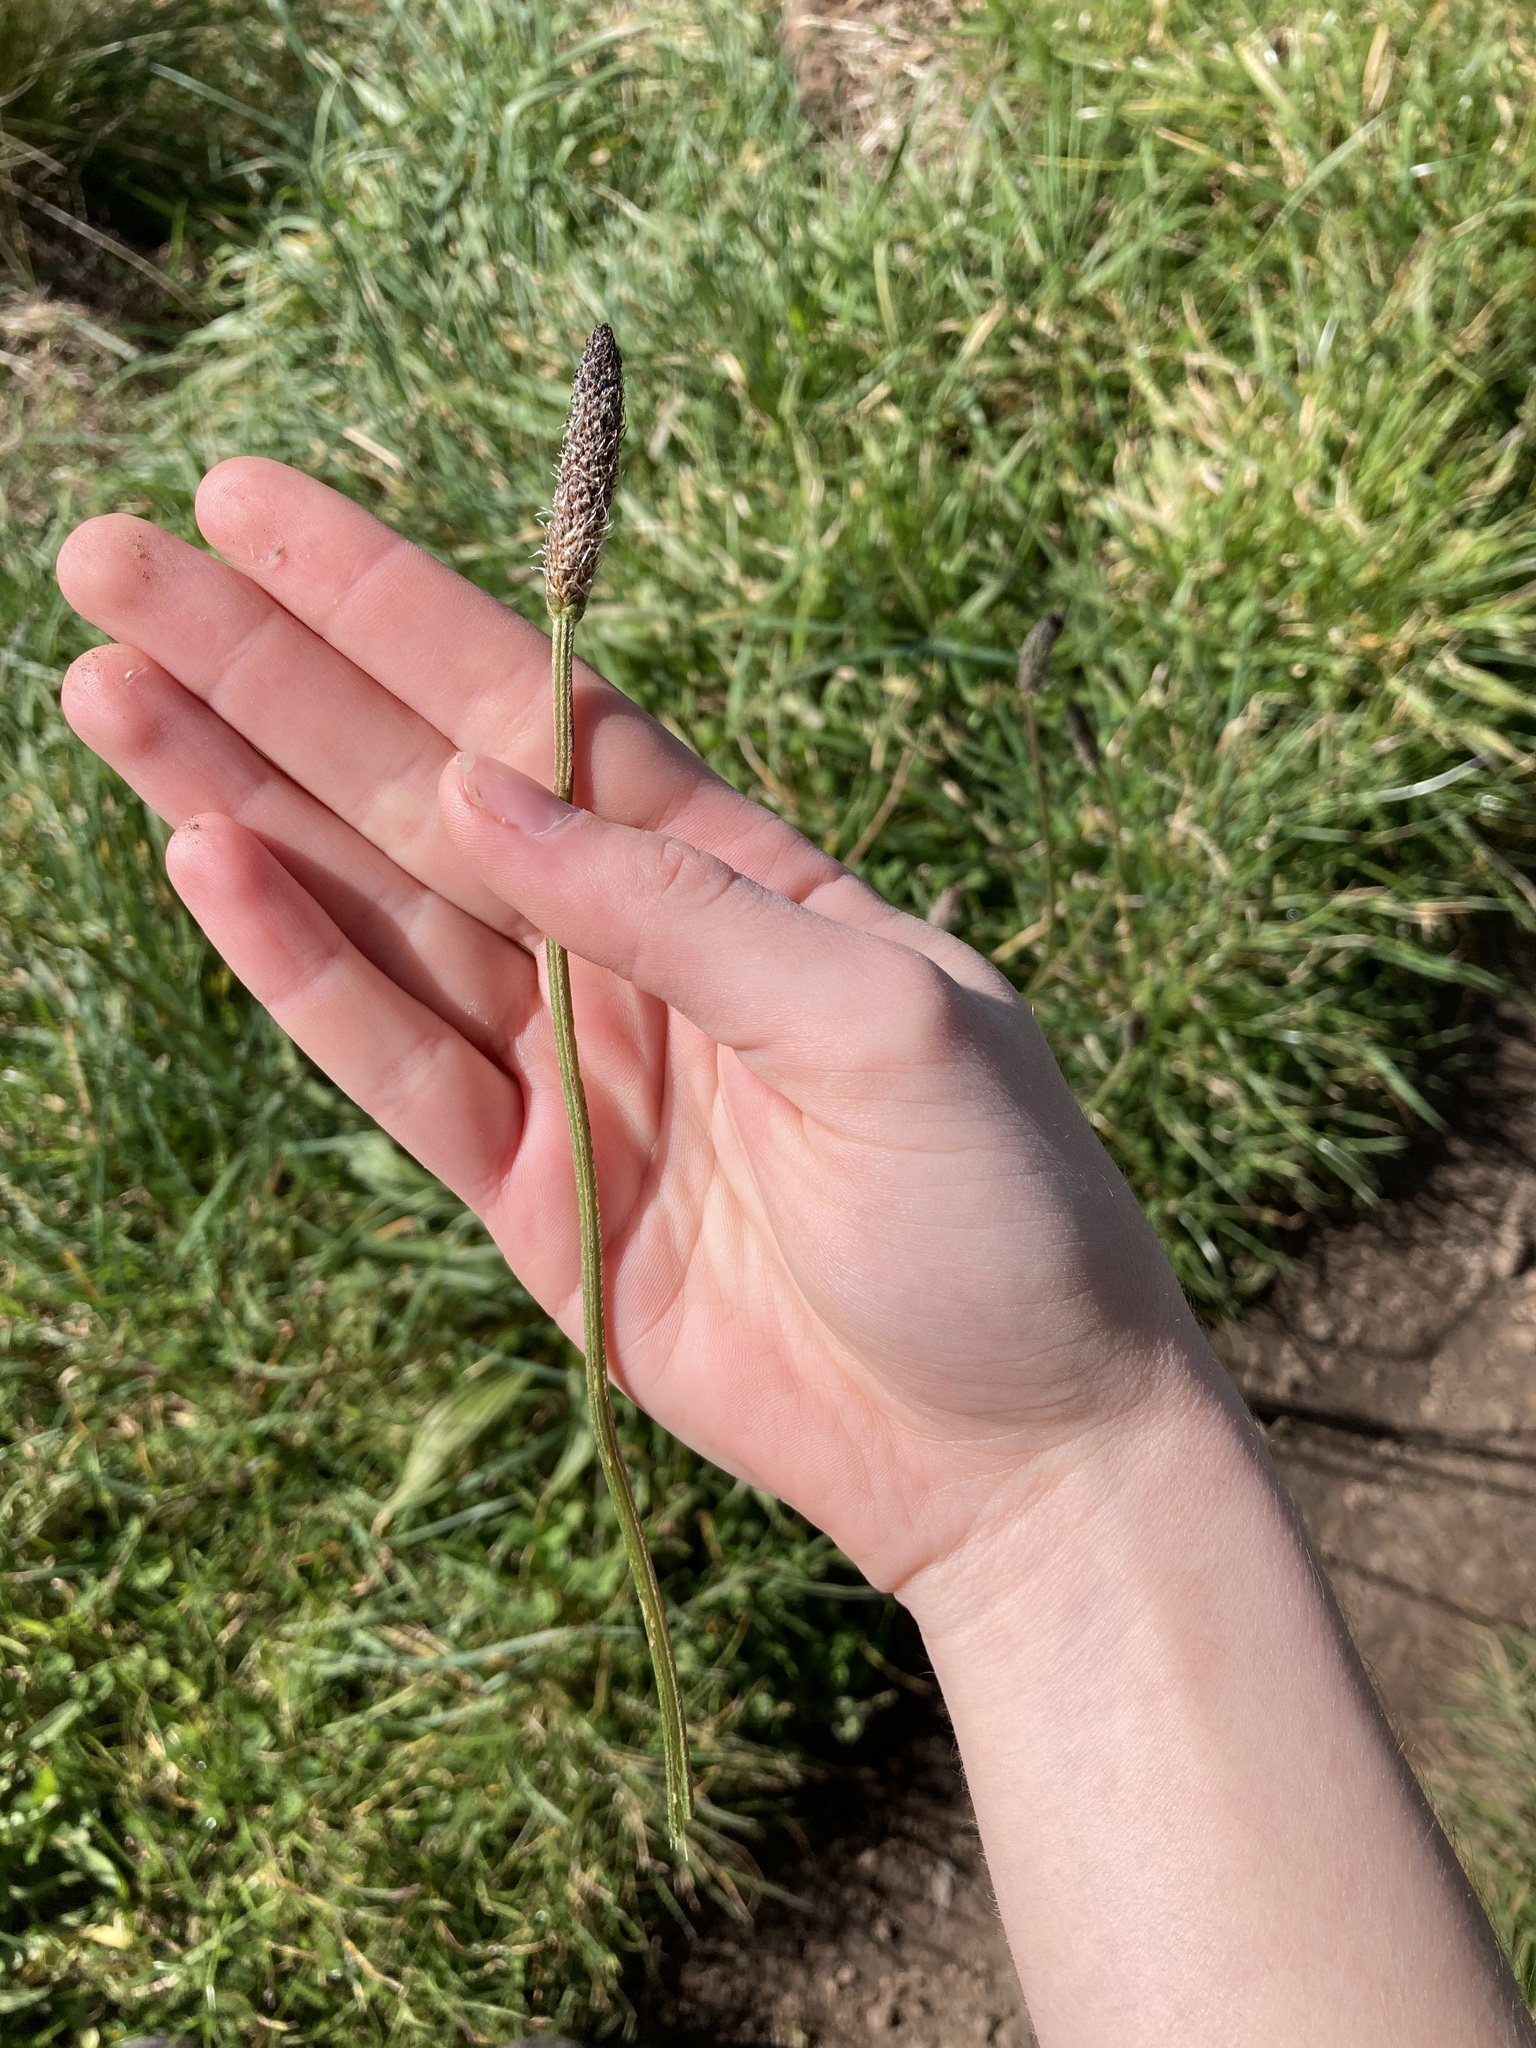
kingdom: Plantae
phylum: Tracheophyta
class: Magnoliopsida
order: Lamiales
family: Plantaginaceae
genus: Plantago
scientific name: Plantago lanceolata
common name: Ribwort plantain
